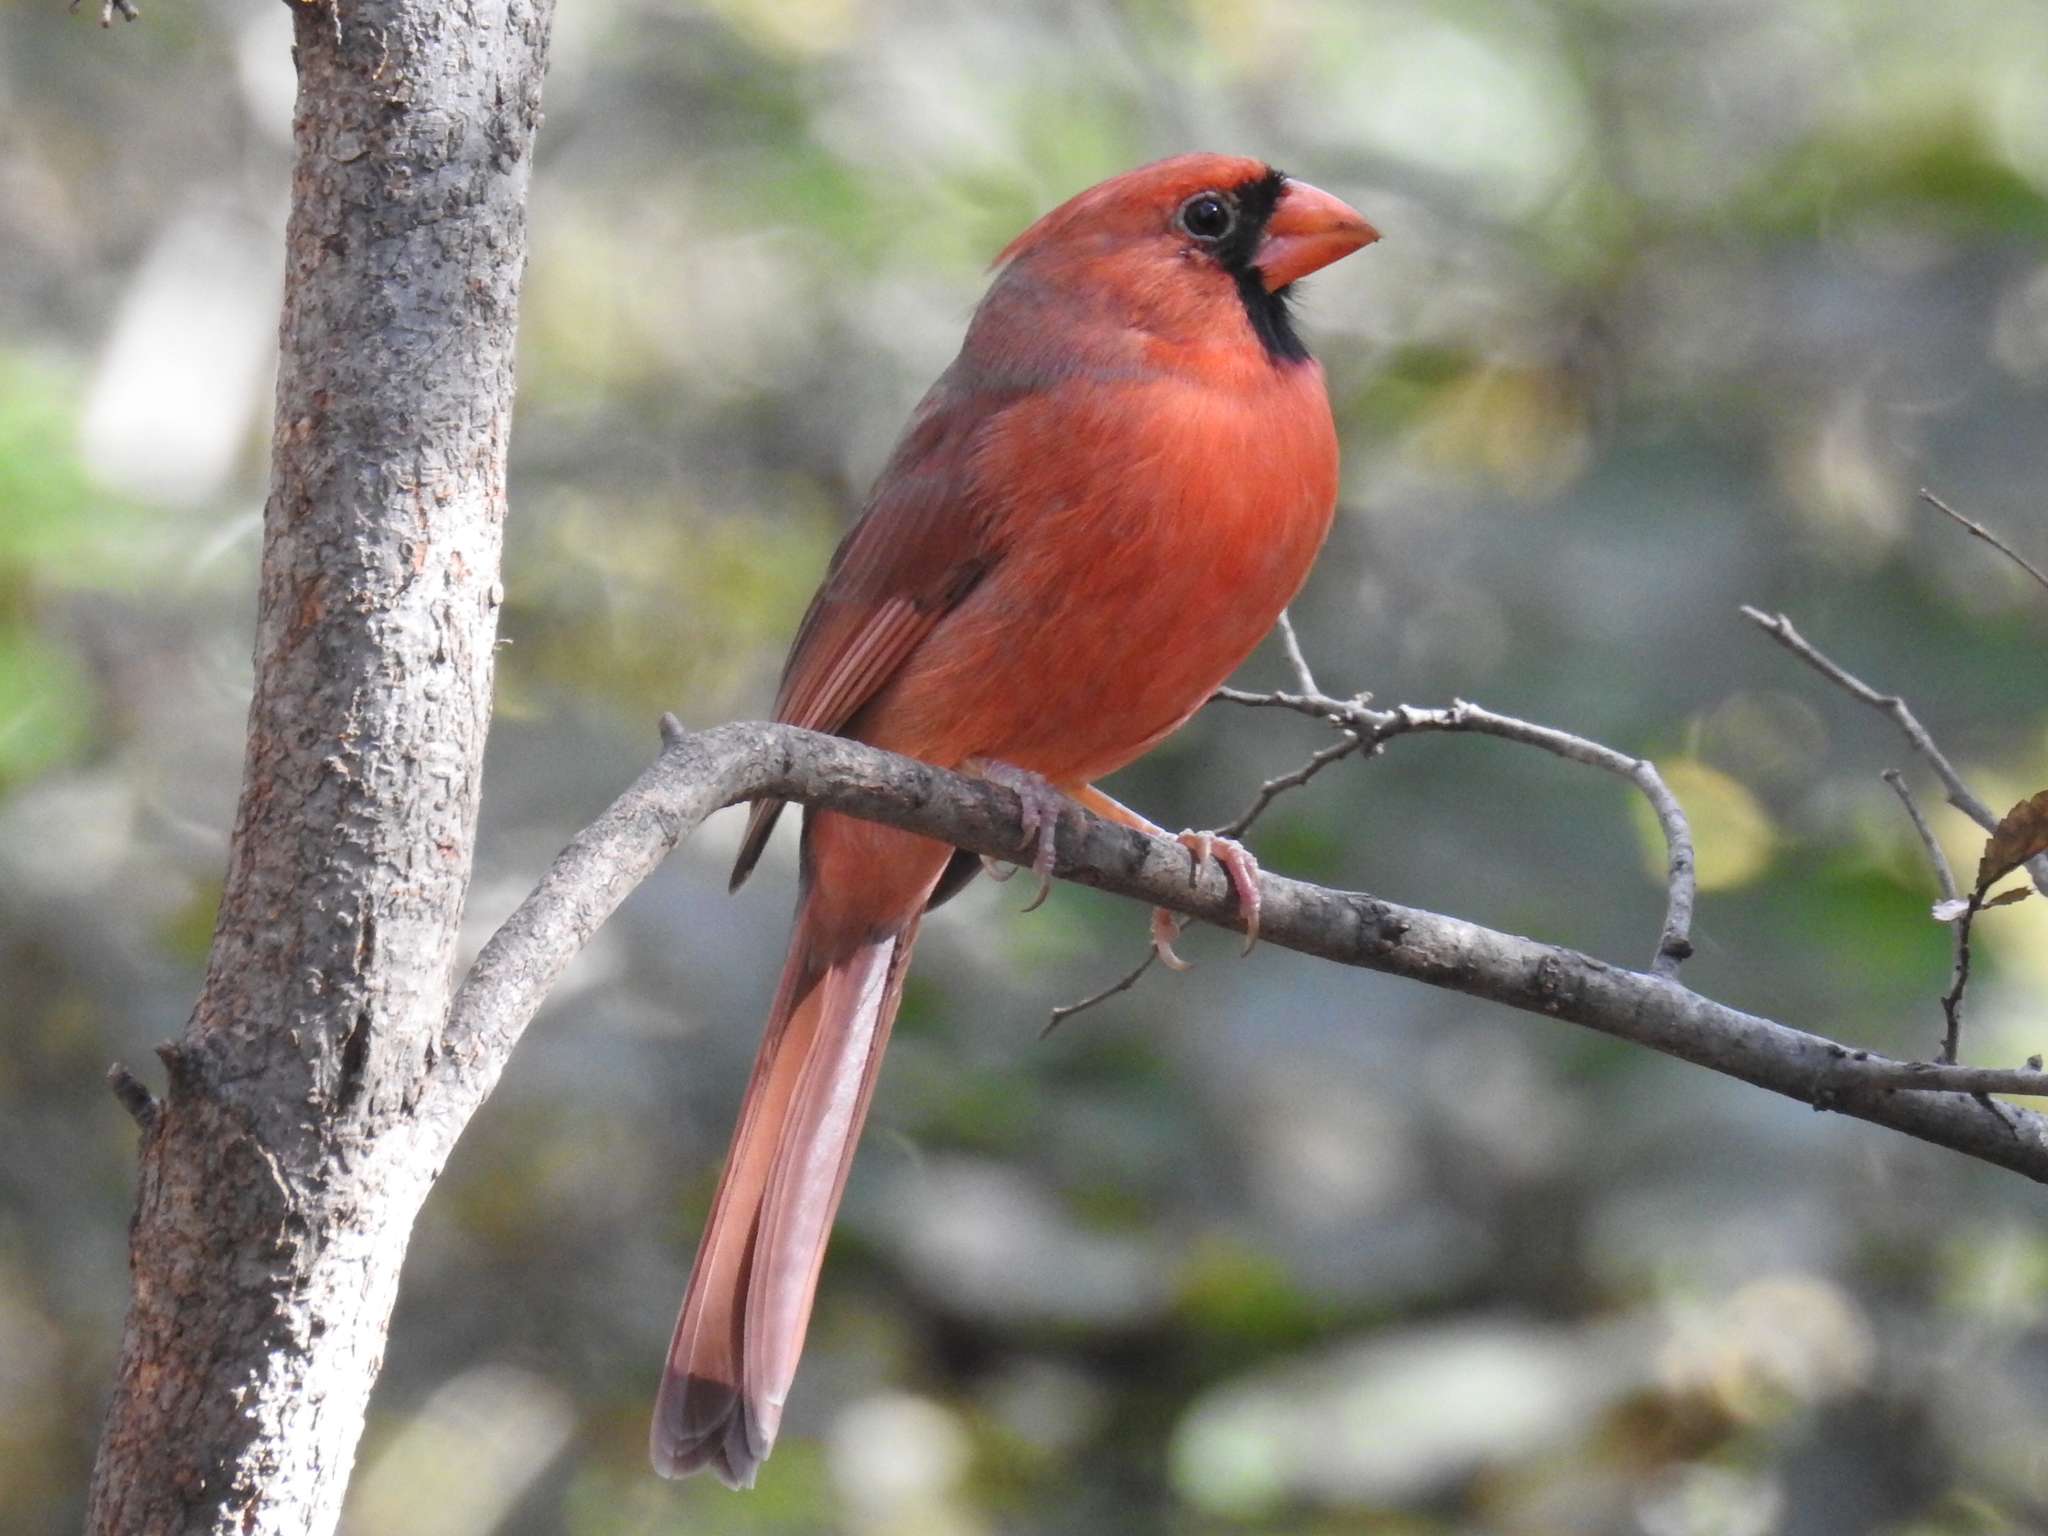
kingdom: Animalia
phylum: Chordata
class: Aves
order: Passeriformes
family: Cardinalidae
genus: Cardinalis
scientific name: Cardinalis cardinalis
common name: Northern cardinal
